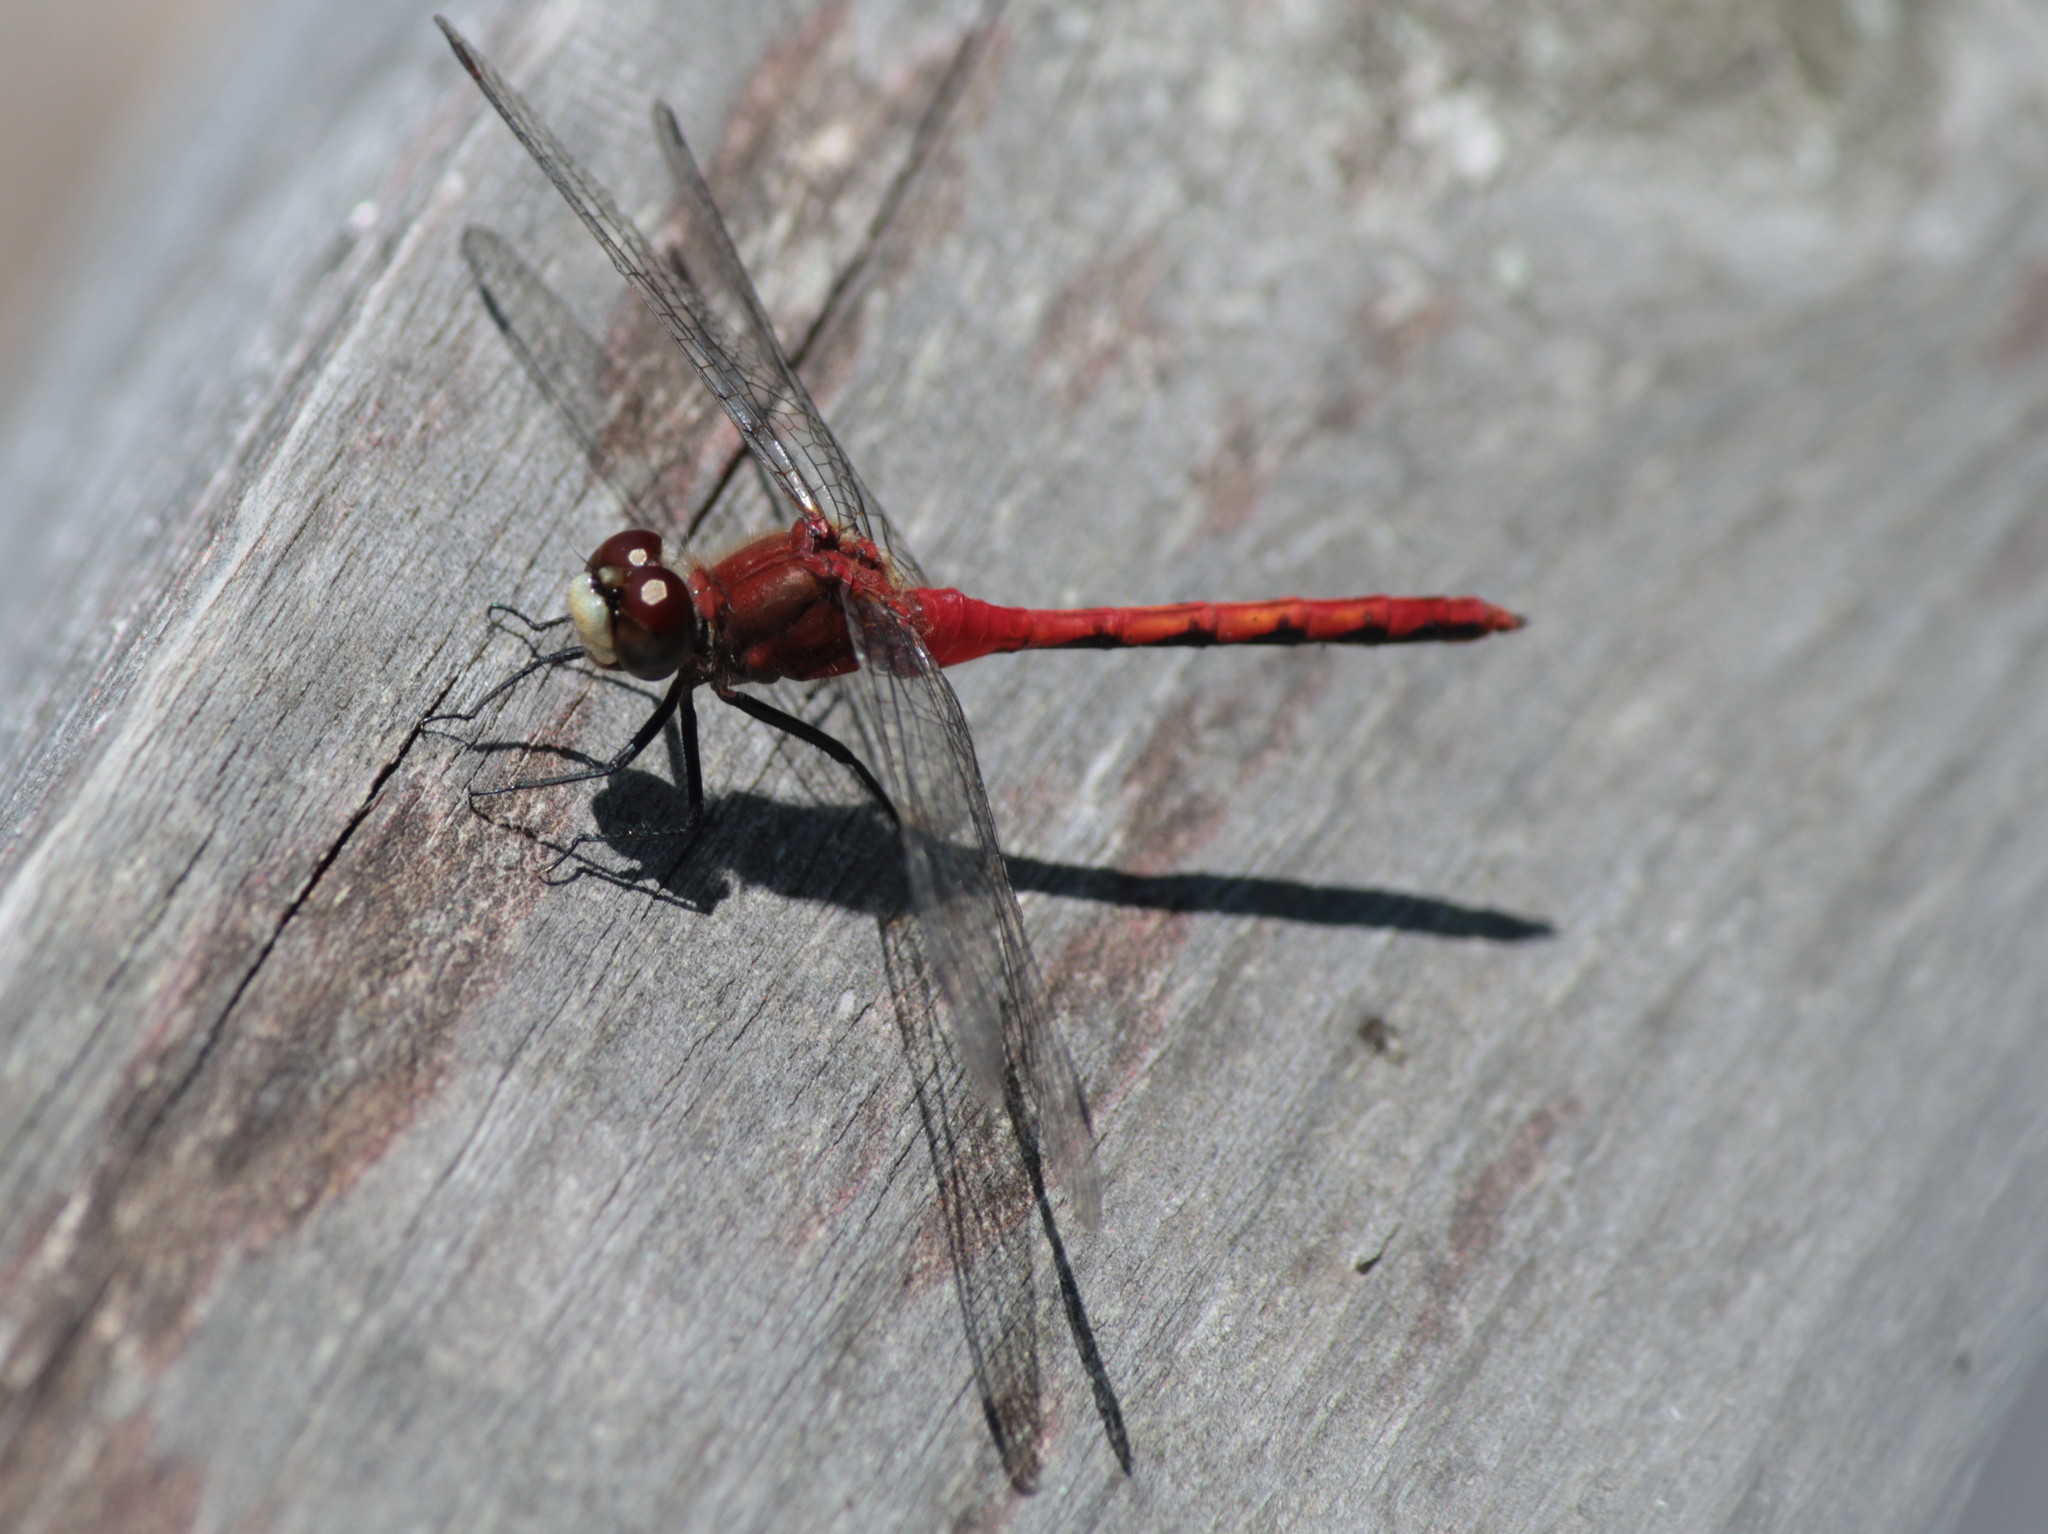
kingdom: Animalia
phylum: Arthropoda
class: Insecta
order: Odonata
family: Libellulidae
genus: Sympetrum
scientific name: Sympetrum obtrusum
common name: White-faced meadowhawk
